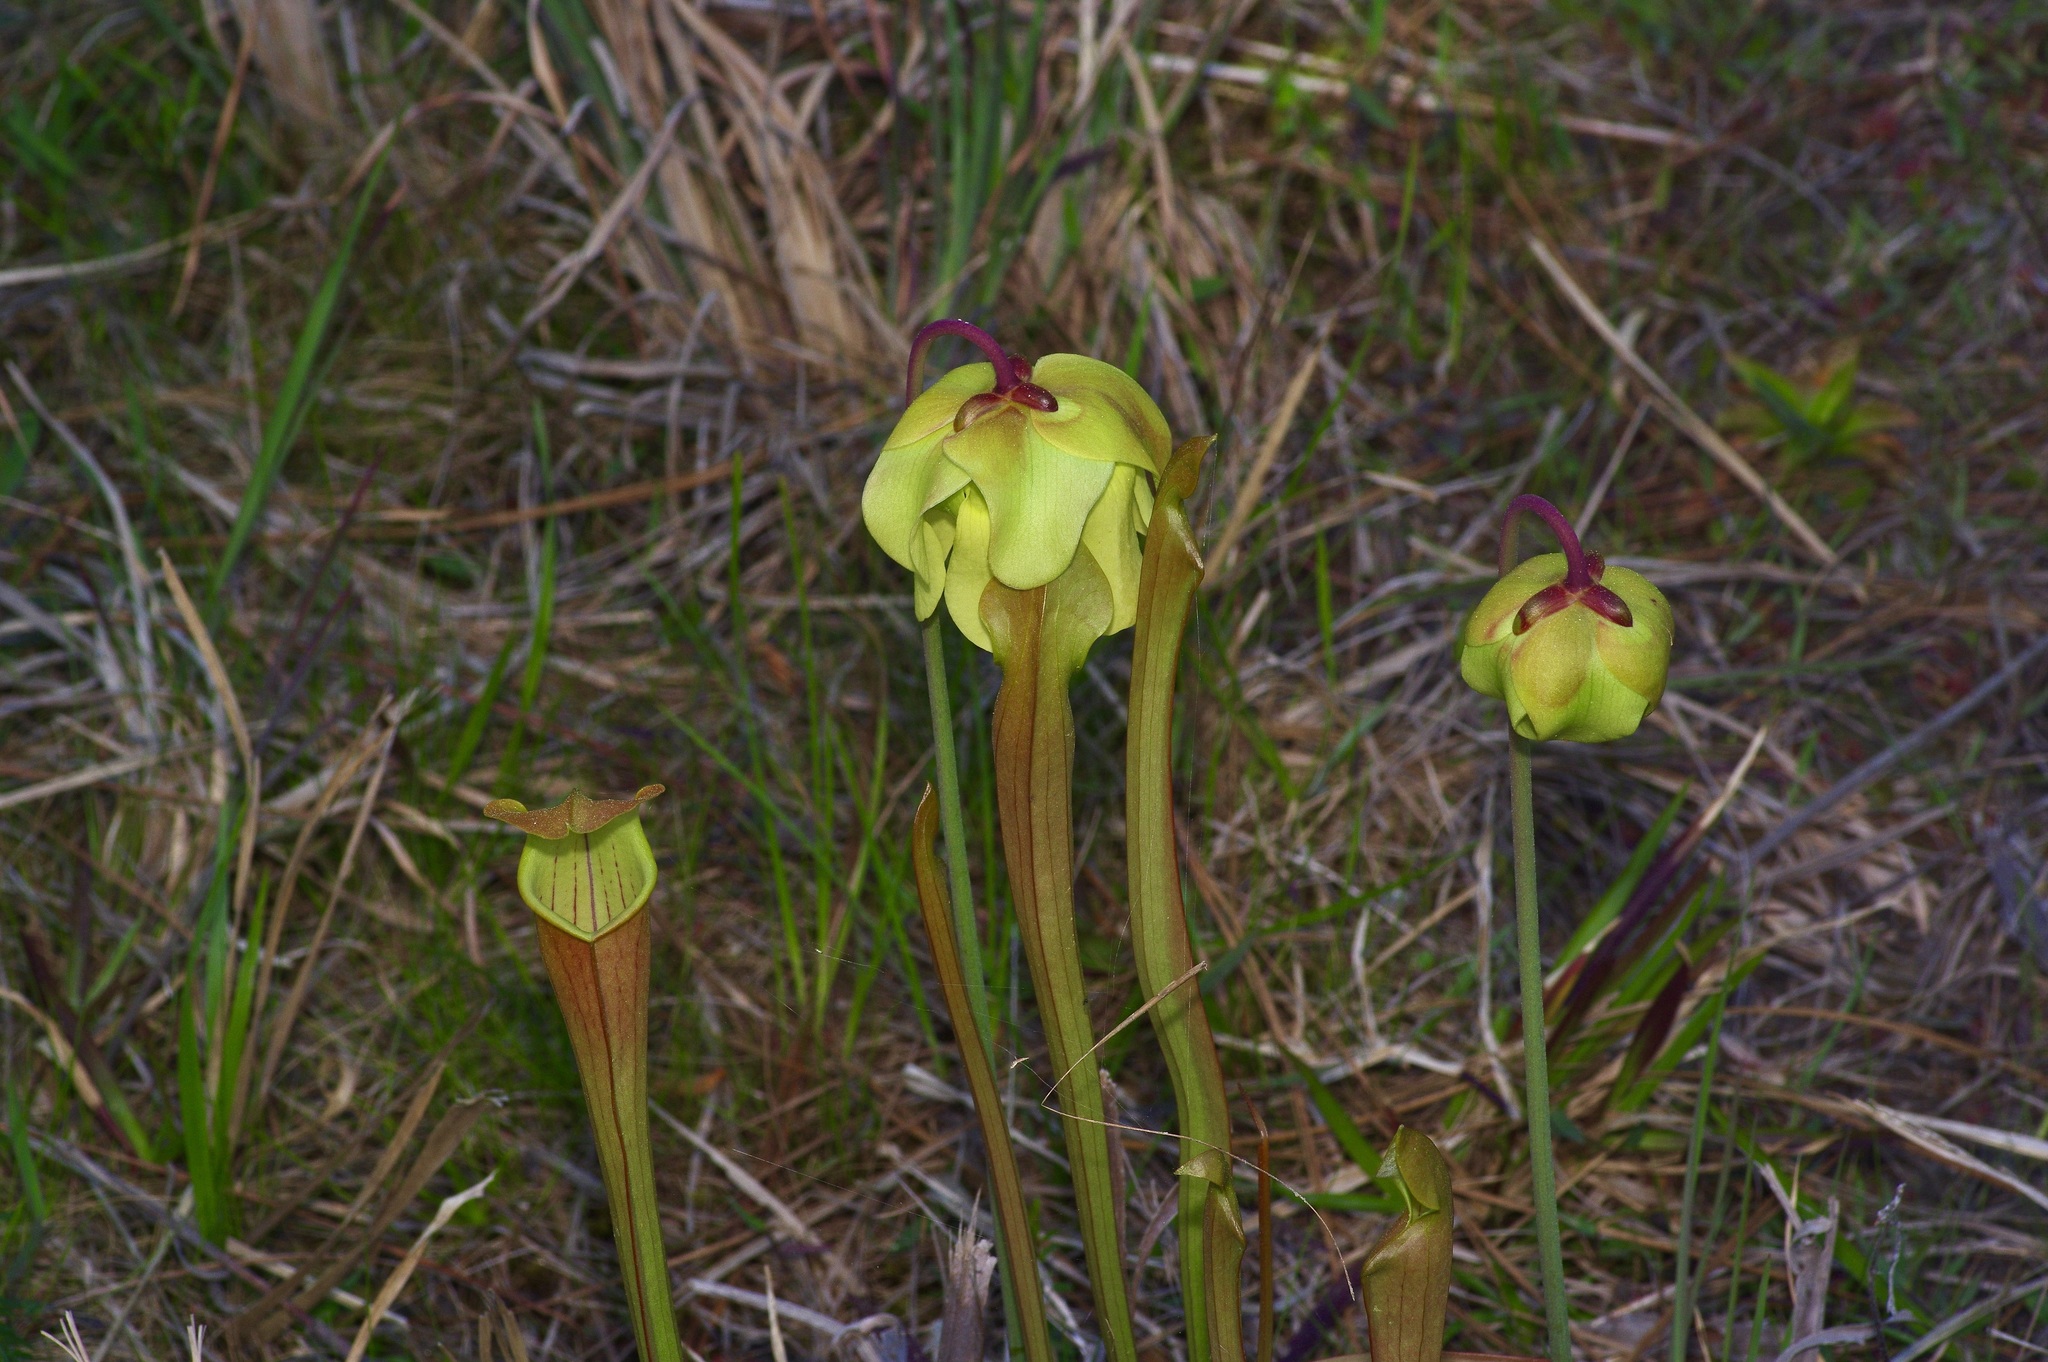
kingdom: Plantae
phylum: Tracheophyta
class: Magnoliopsida
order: Ericales
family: Sarraceniaceae
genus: Sarracenia
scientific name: Sarracenia alata
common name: Yellow trumpets
